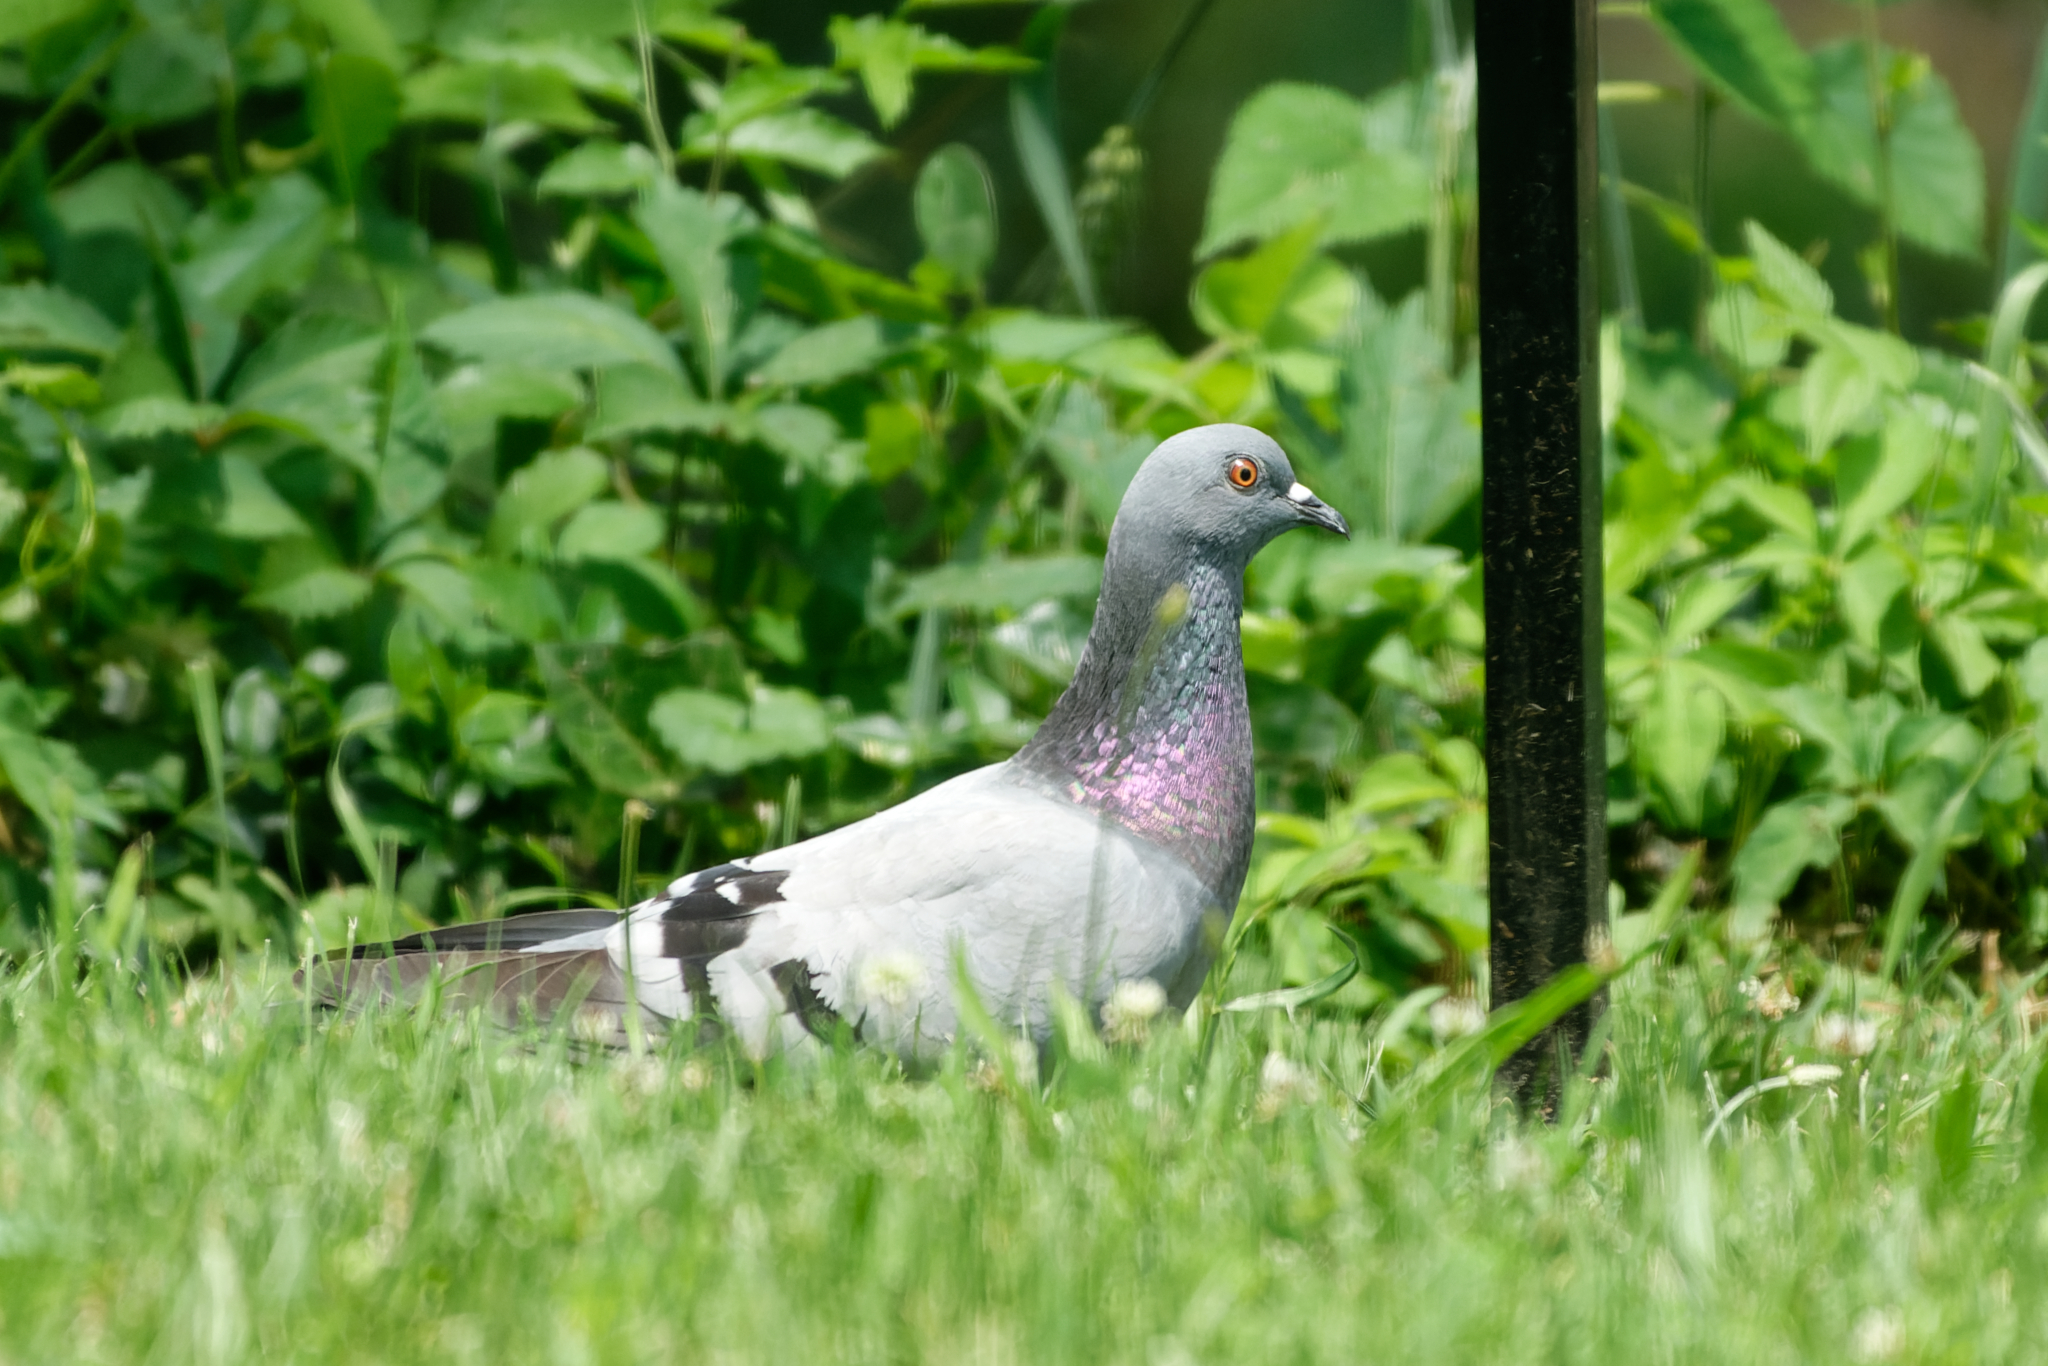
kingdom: Animalia
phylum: Chordata
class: Aves
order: Columbiformes
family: Columbidae
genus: Columba
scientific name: Columba livia
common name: Rock pigeon
